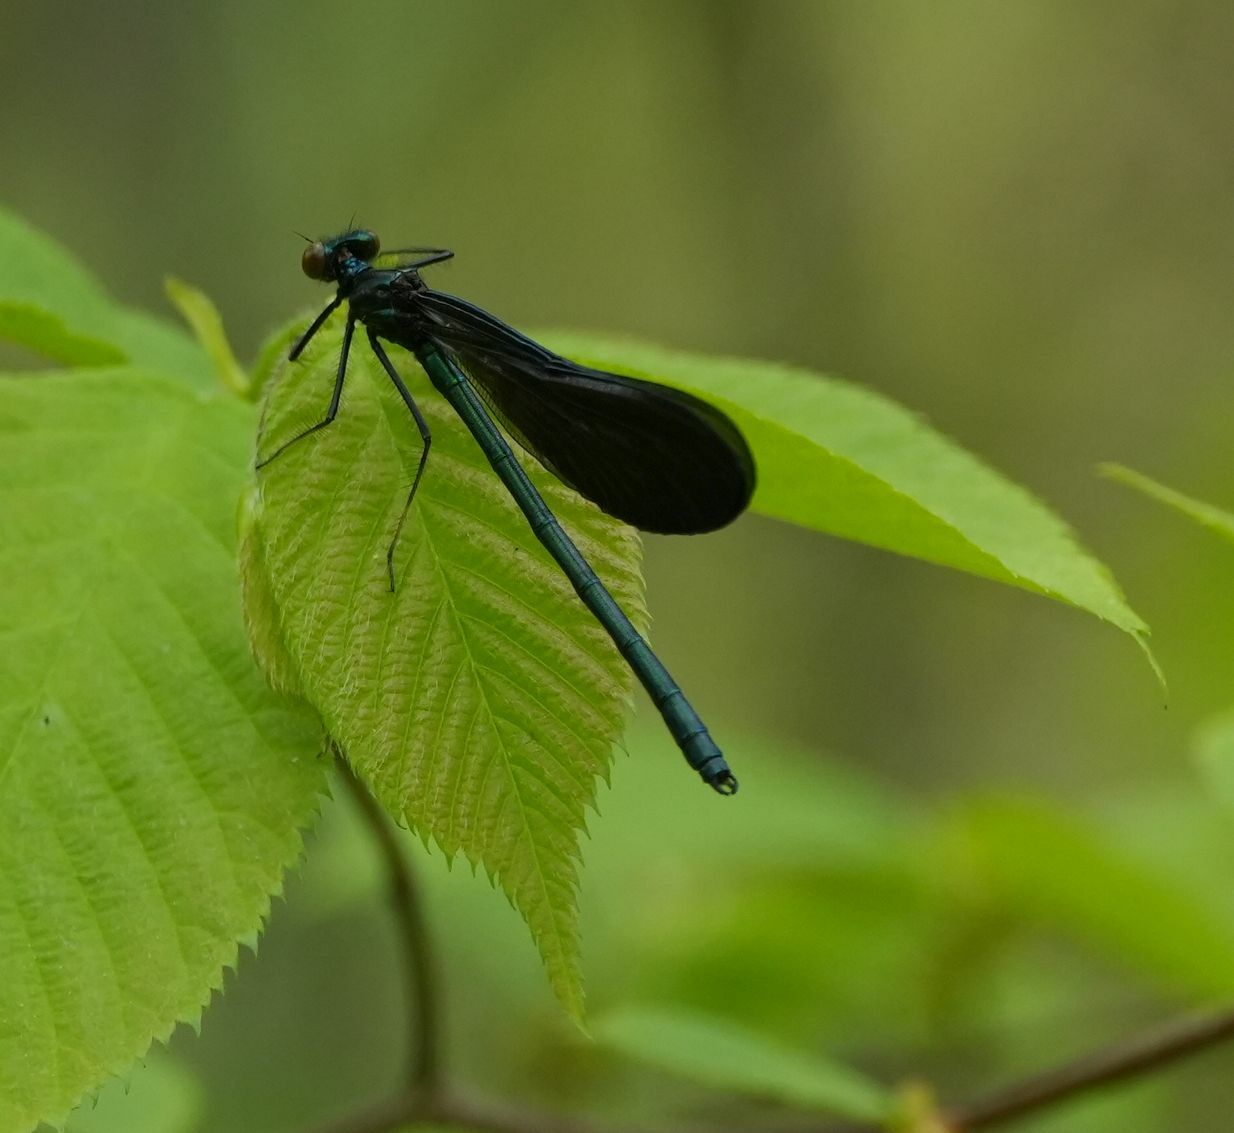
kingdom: Animalia
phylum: Arthropoda
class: Insecta
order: Odonata
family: Calopterygidae
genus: Calopteryx
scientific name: Calopteryx maculata
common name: Ebony jewelwing
